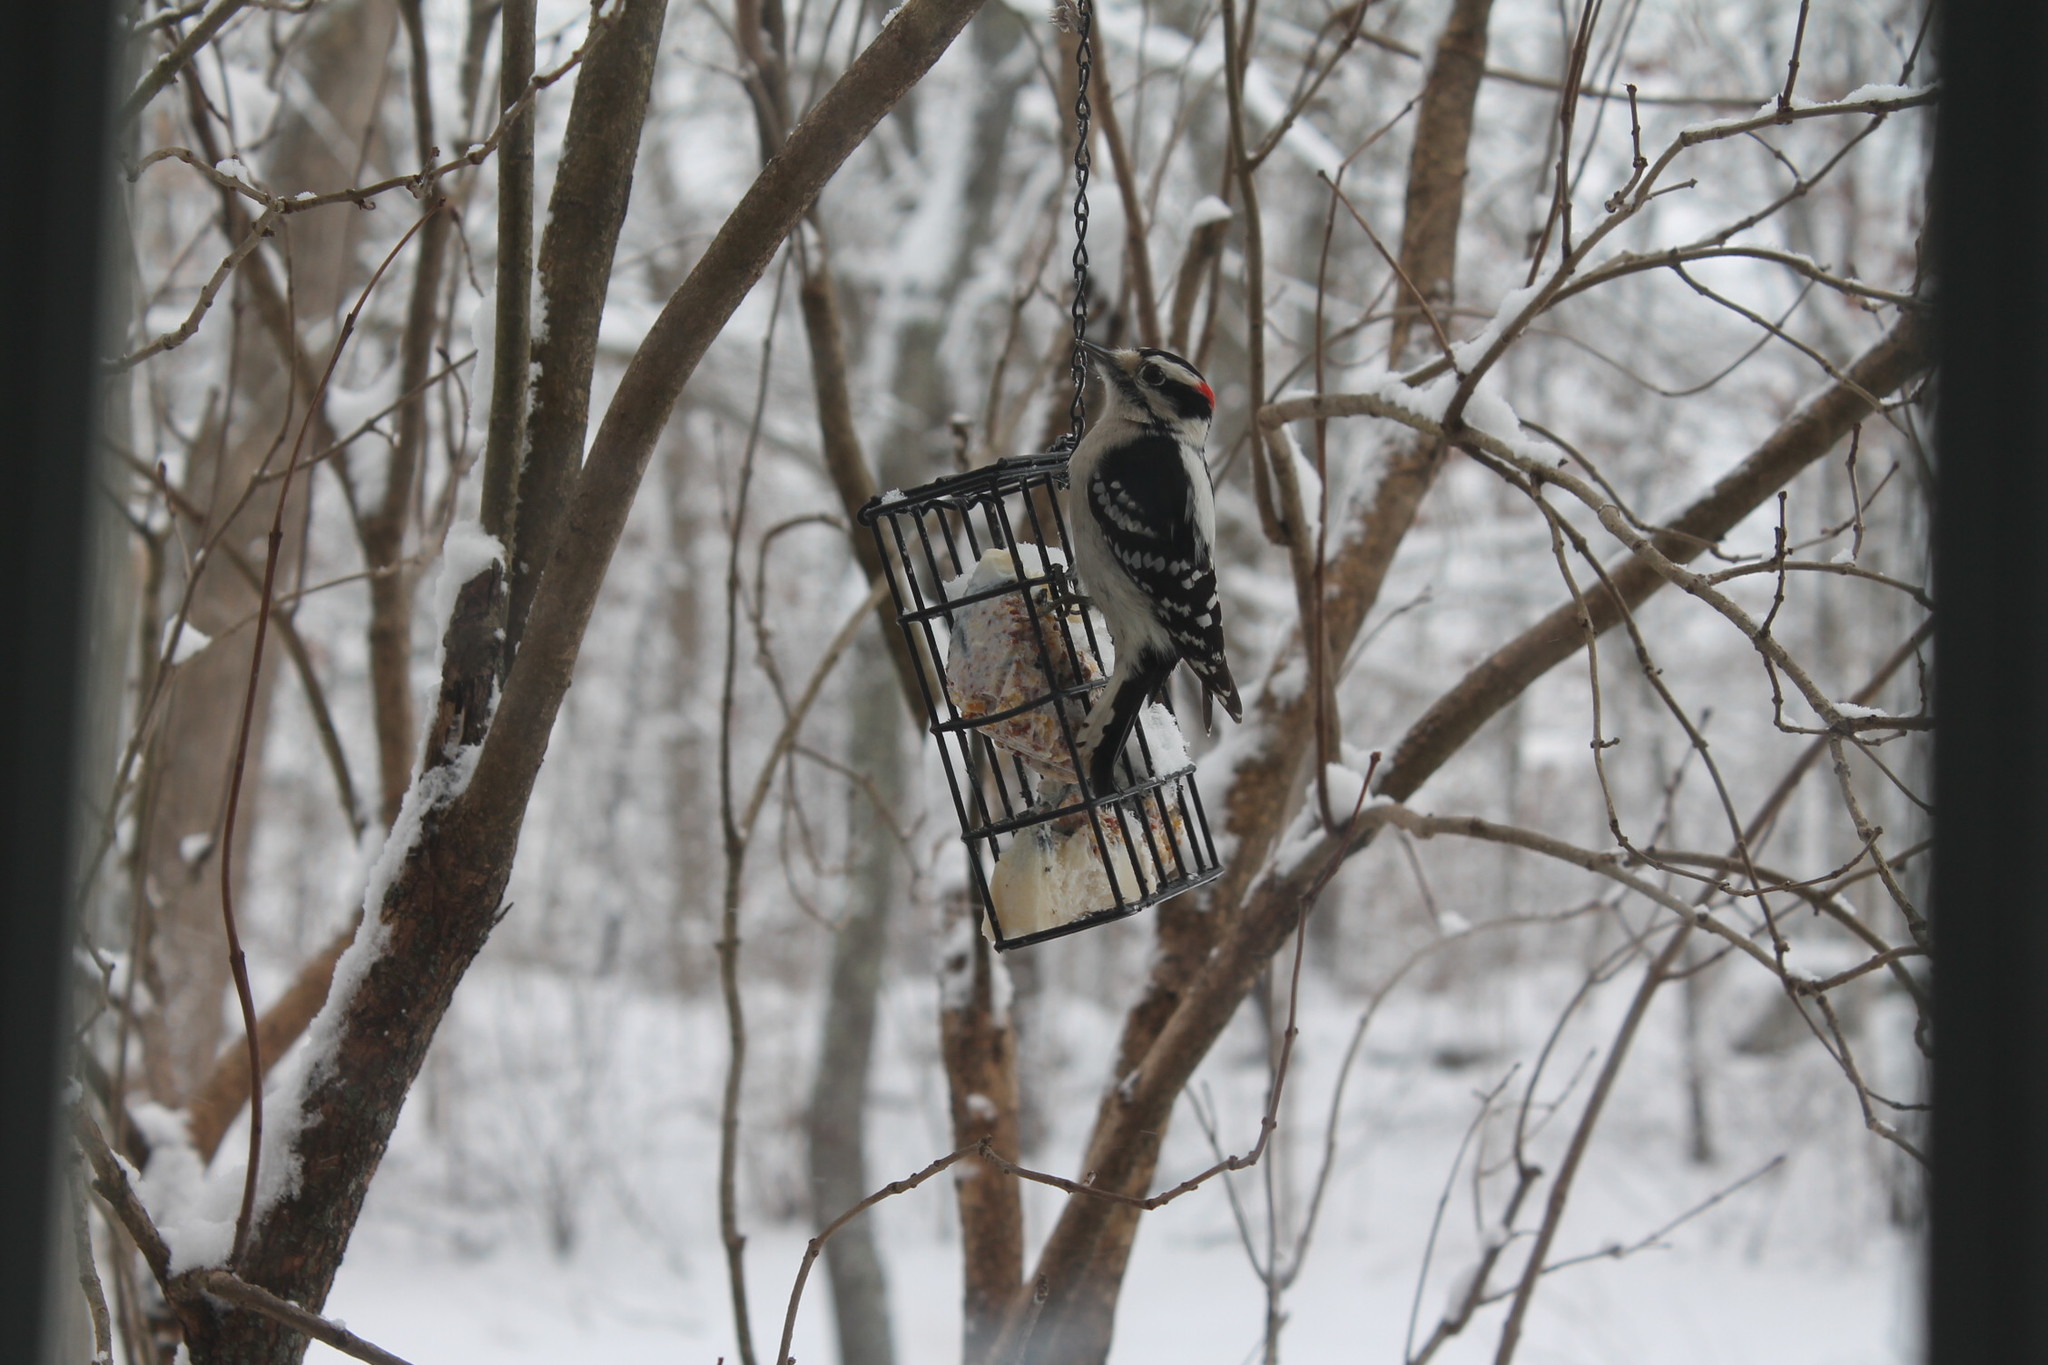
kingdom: Animalia
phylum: Chordata
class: Aves
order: Piciformes
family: Picidae
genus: Dryobates
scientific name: Dryobates pubescens
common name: Downy woodpecker
